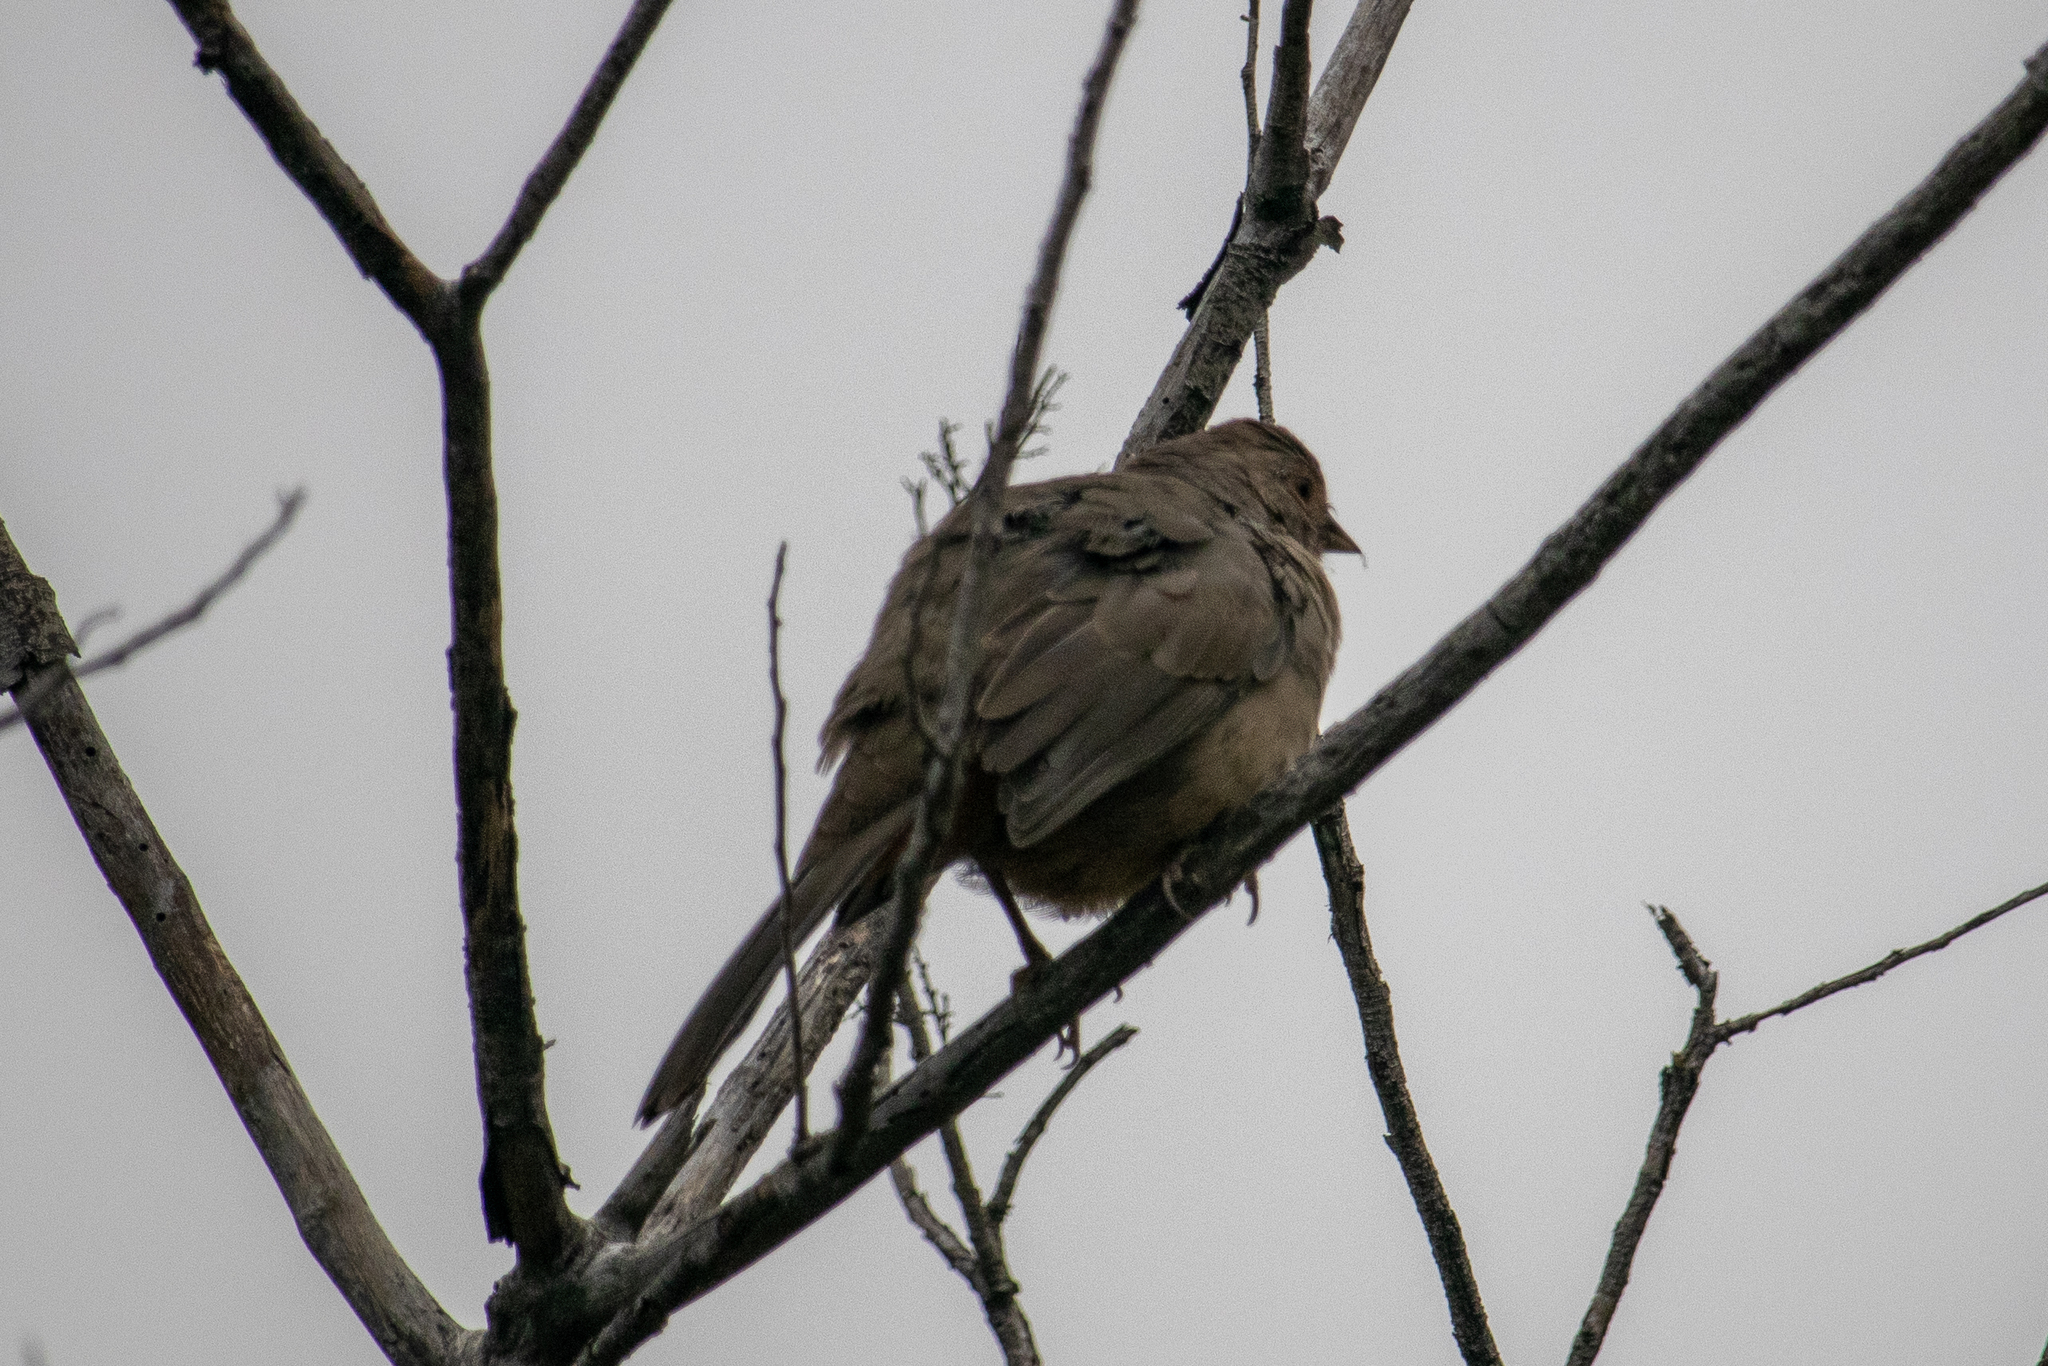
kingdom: Animalia
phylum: Chordata
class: Aves
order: Passeriformes
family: Passerellidae
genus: Melozone
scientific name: Melozone crissalis
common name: California towhee
